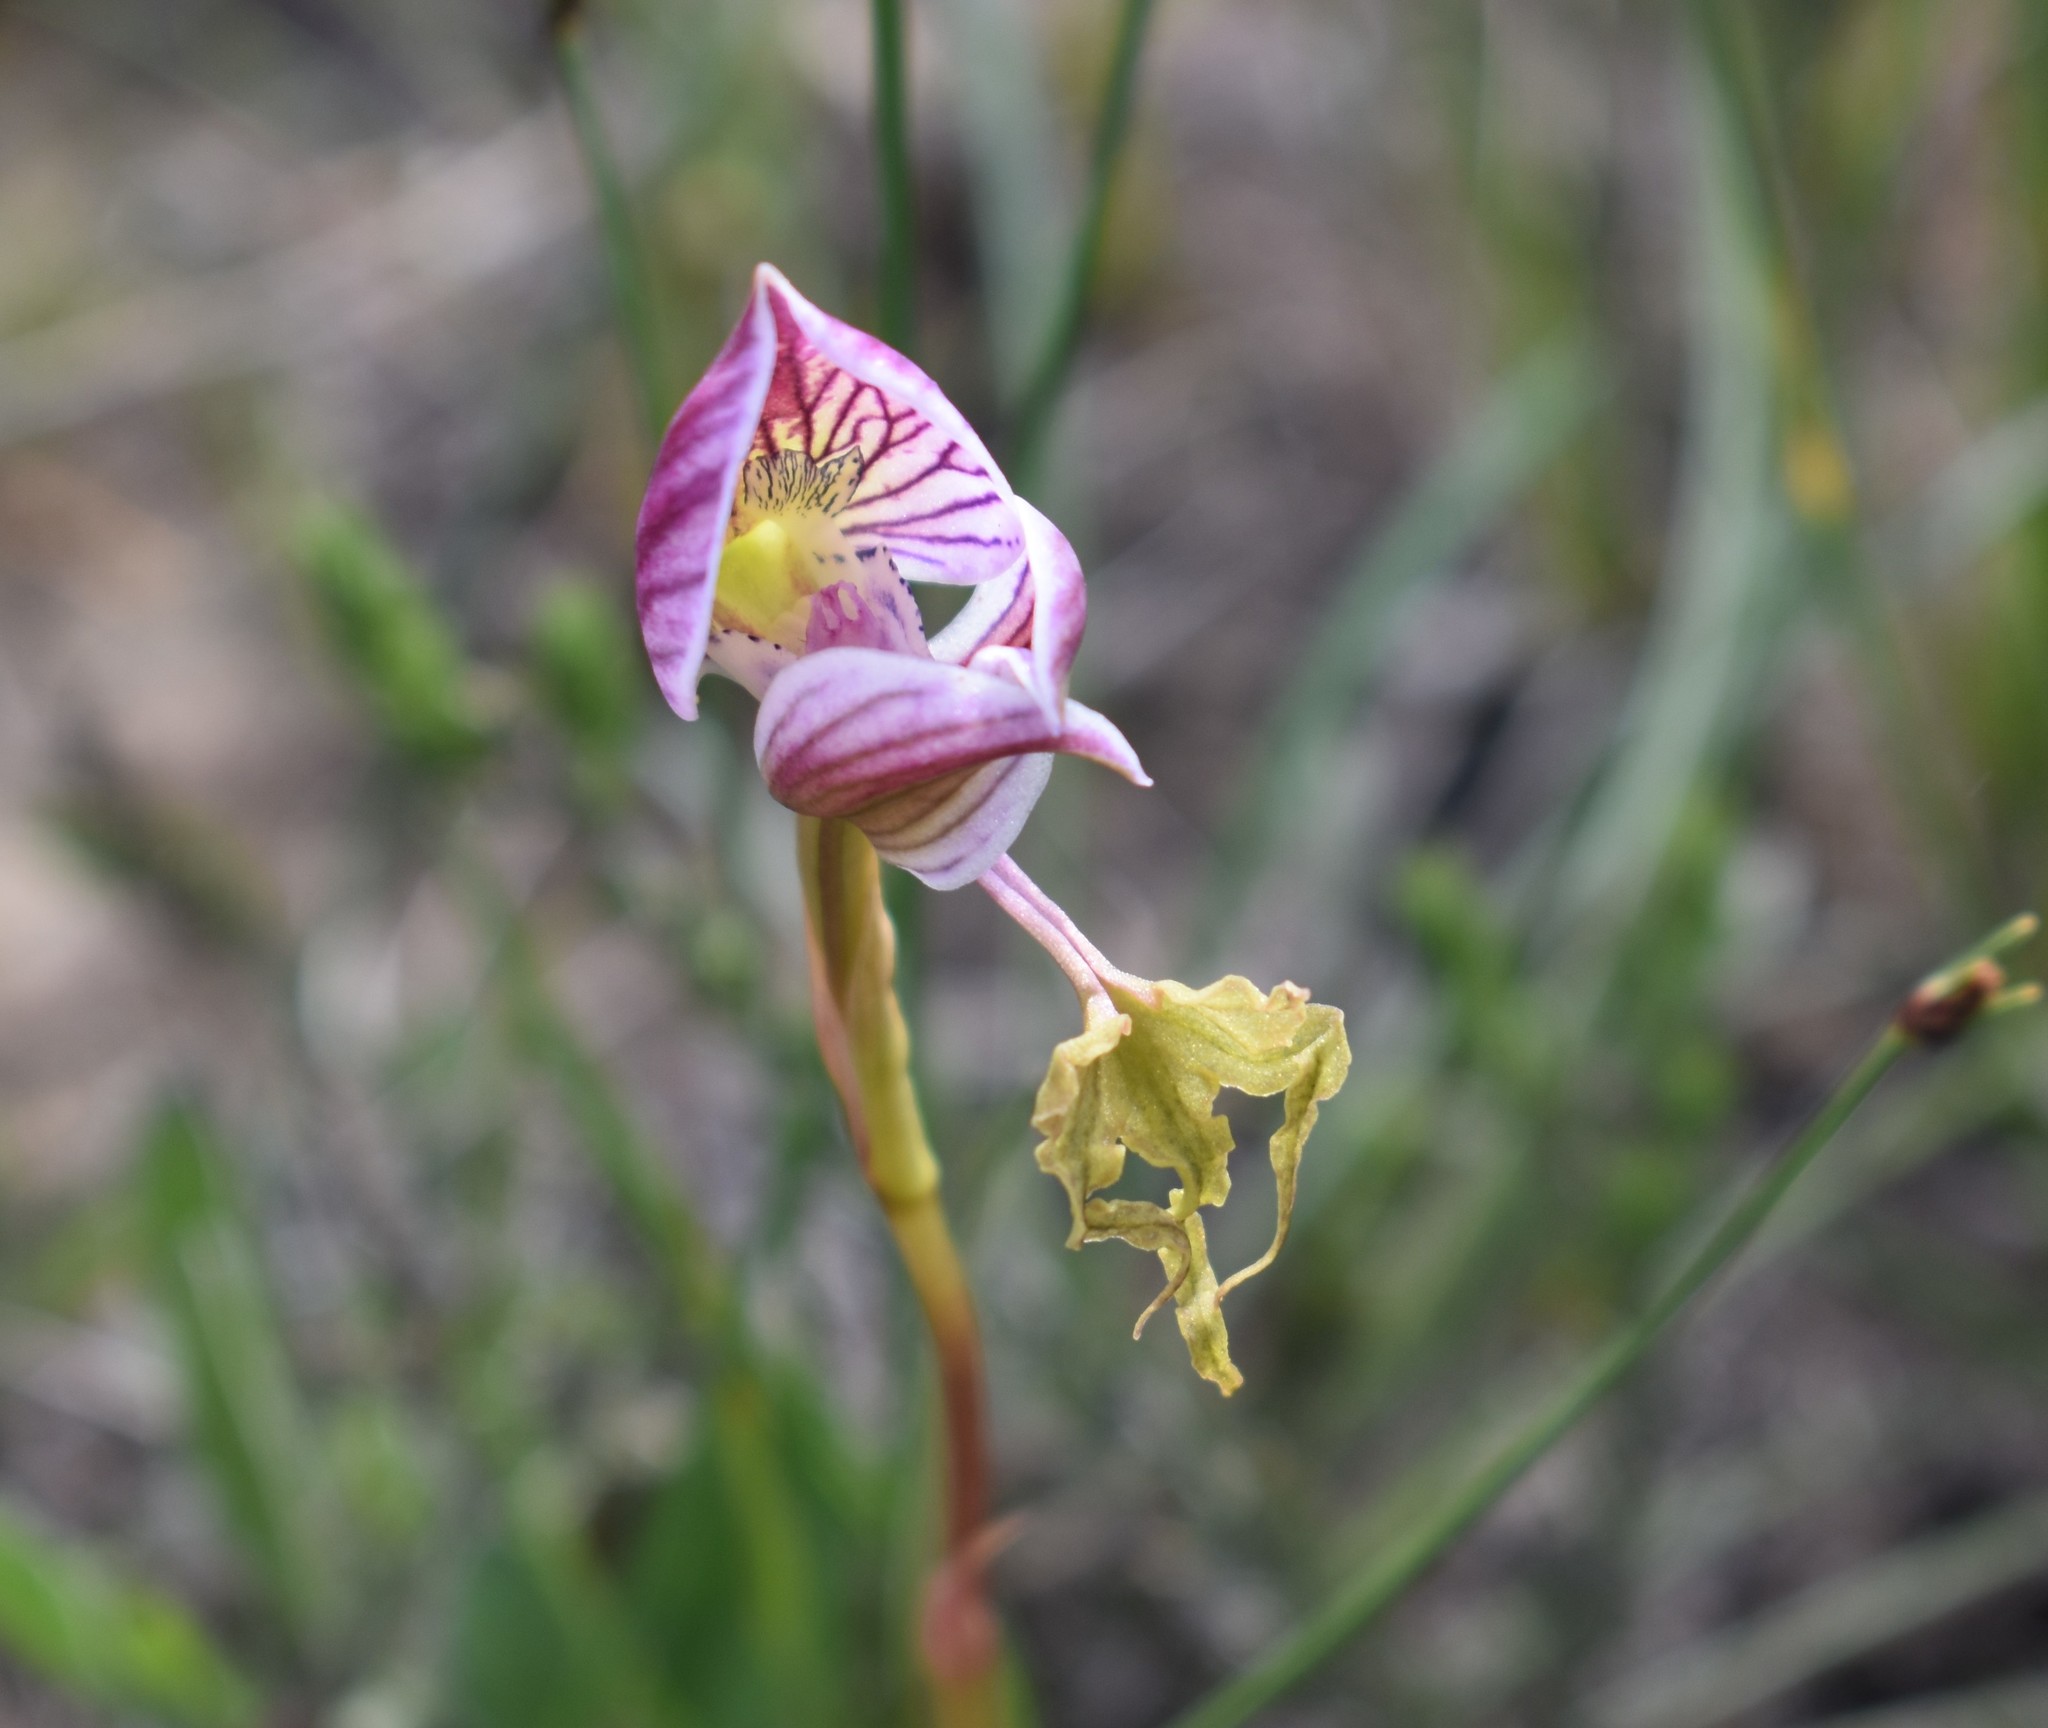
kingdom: Plantae
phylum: Tracheophyta
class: Liliopsida
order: Asparagales
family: Orchidaceae
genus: Disa
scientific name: Disa spathulata
